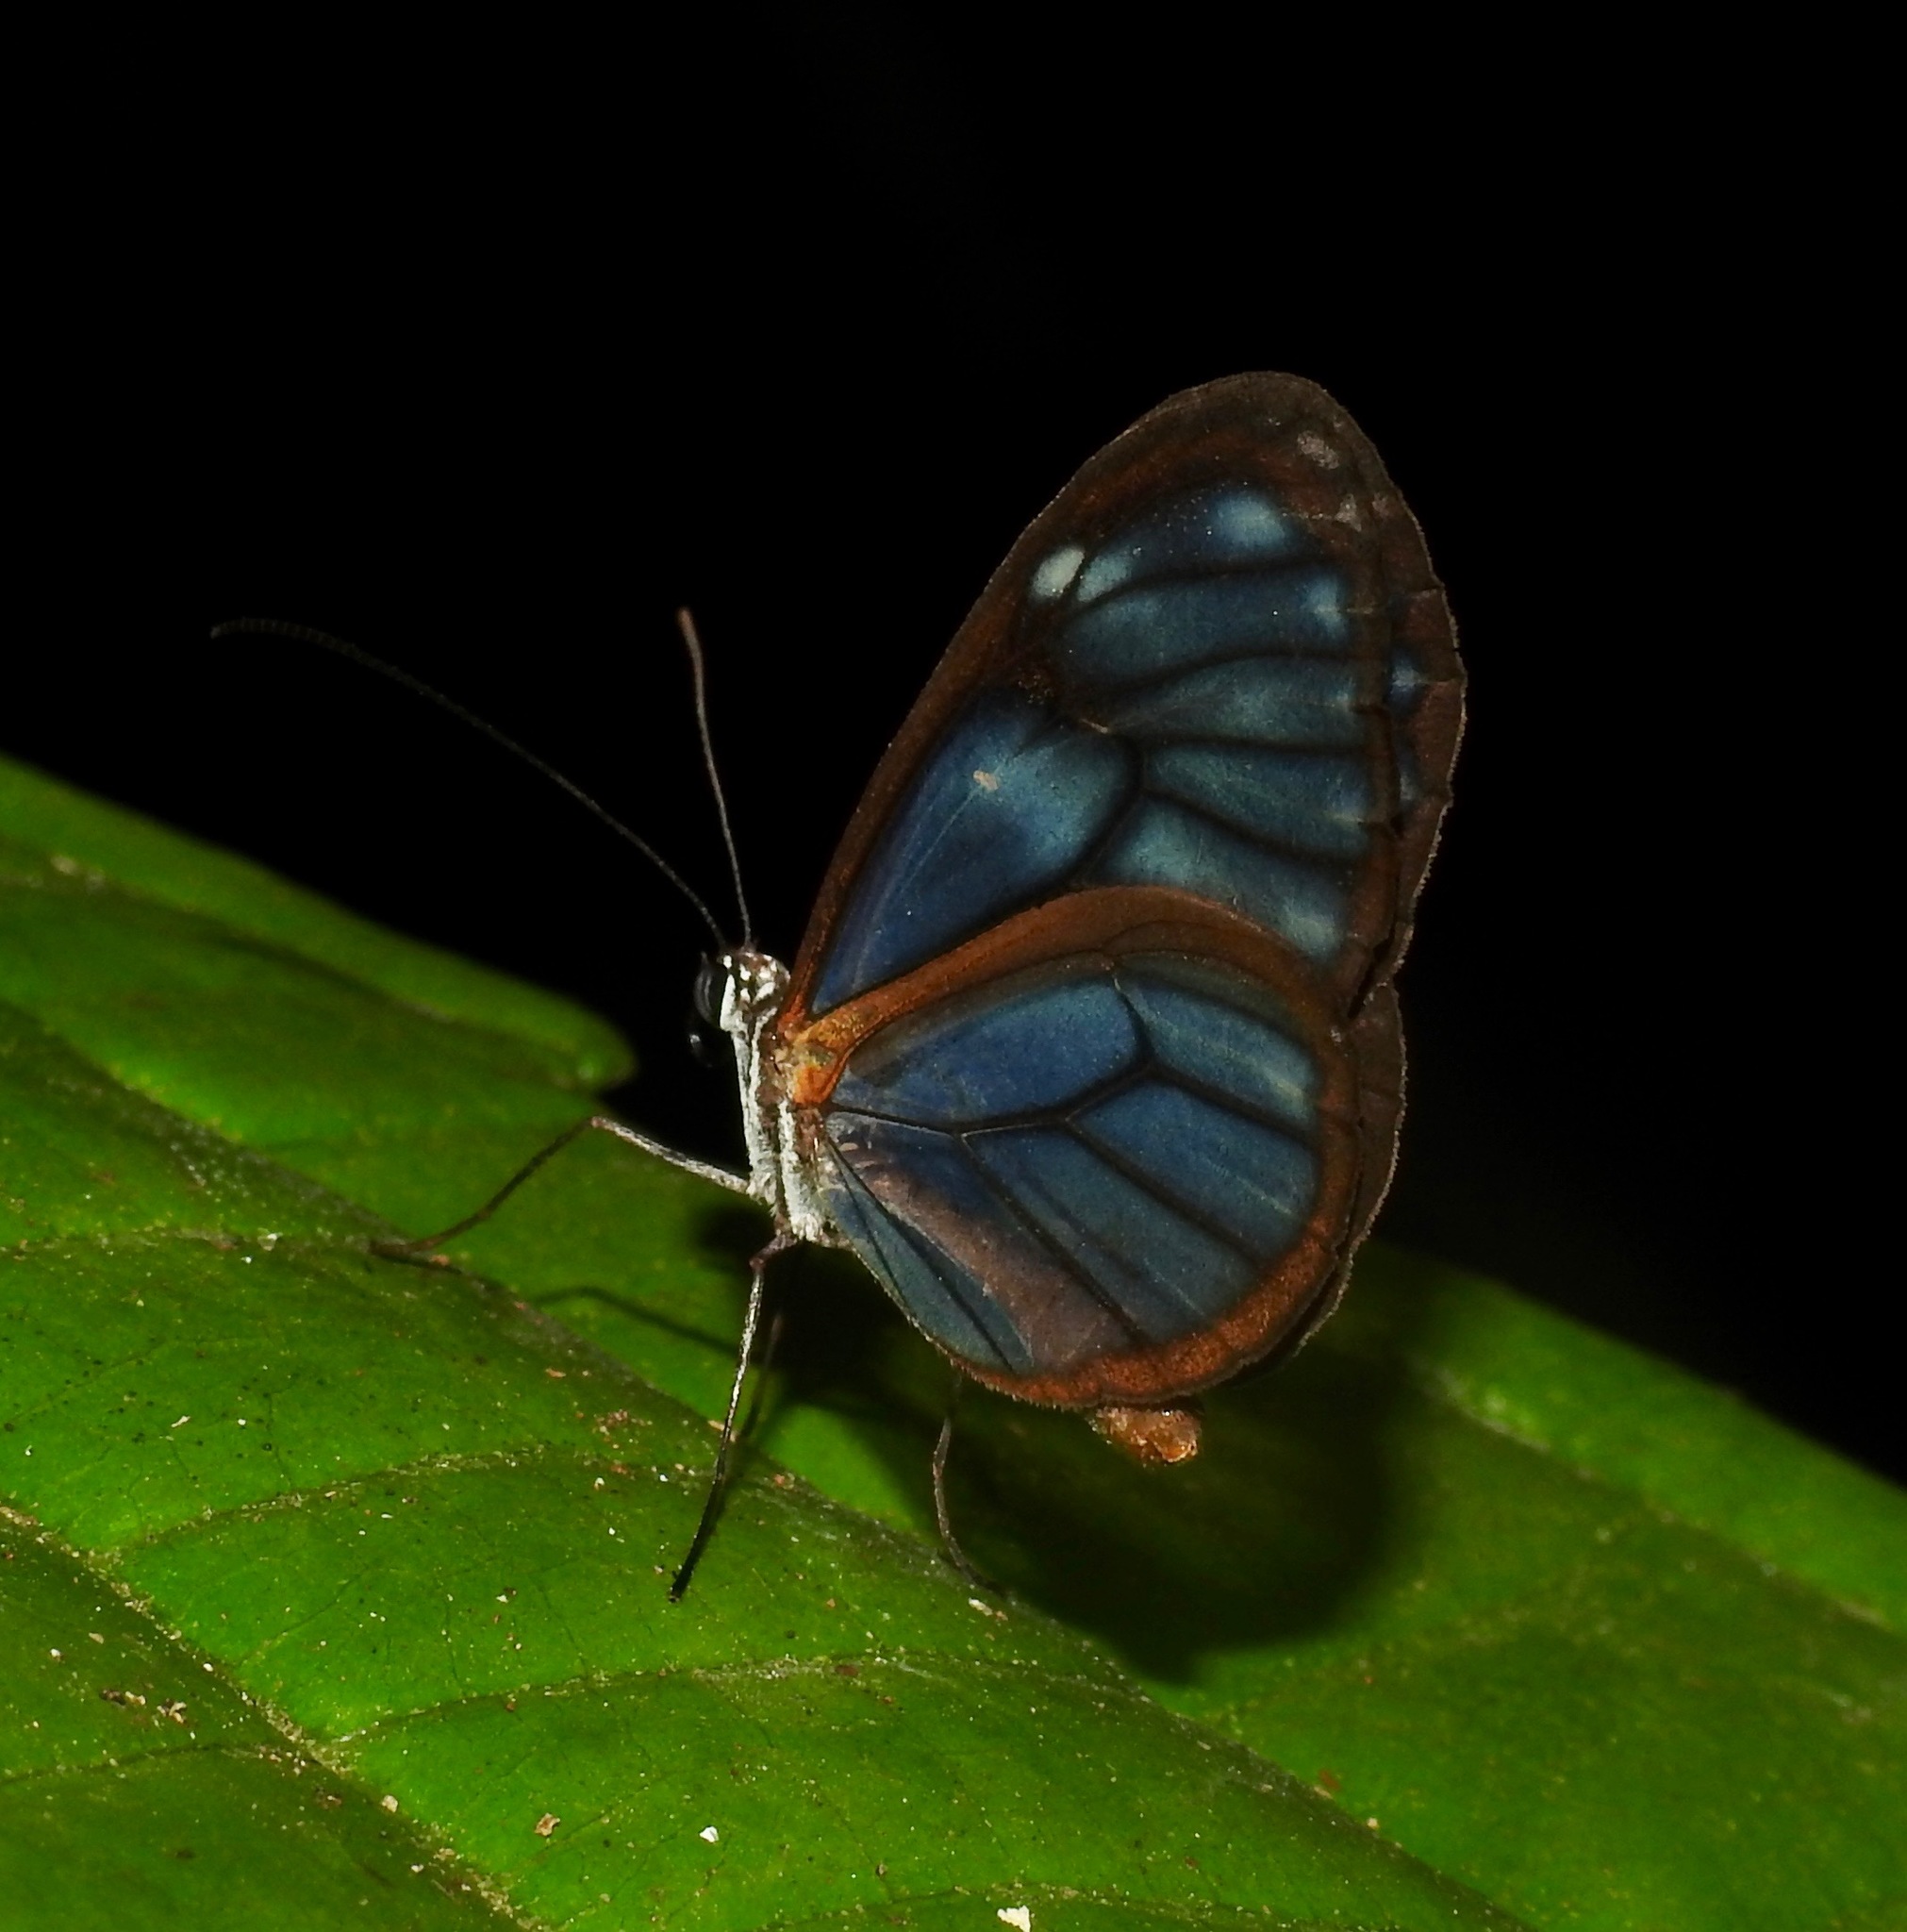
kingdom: Animalia
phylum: Arthropoda
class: Insecta
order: Lepidoptera
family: Nymphalidae
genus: Pseudoscada
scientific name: Pseudoscada
